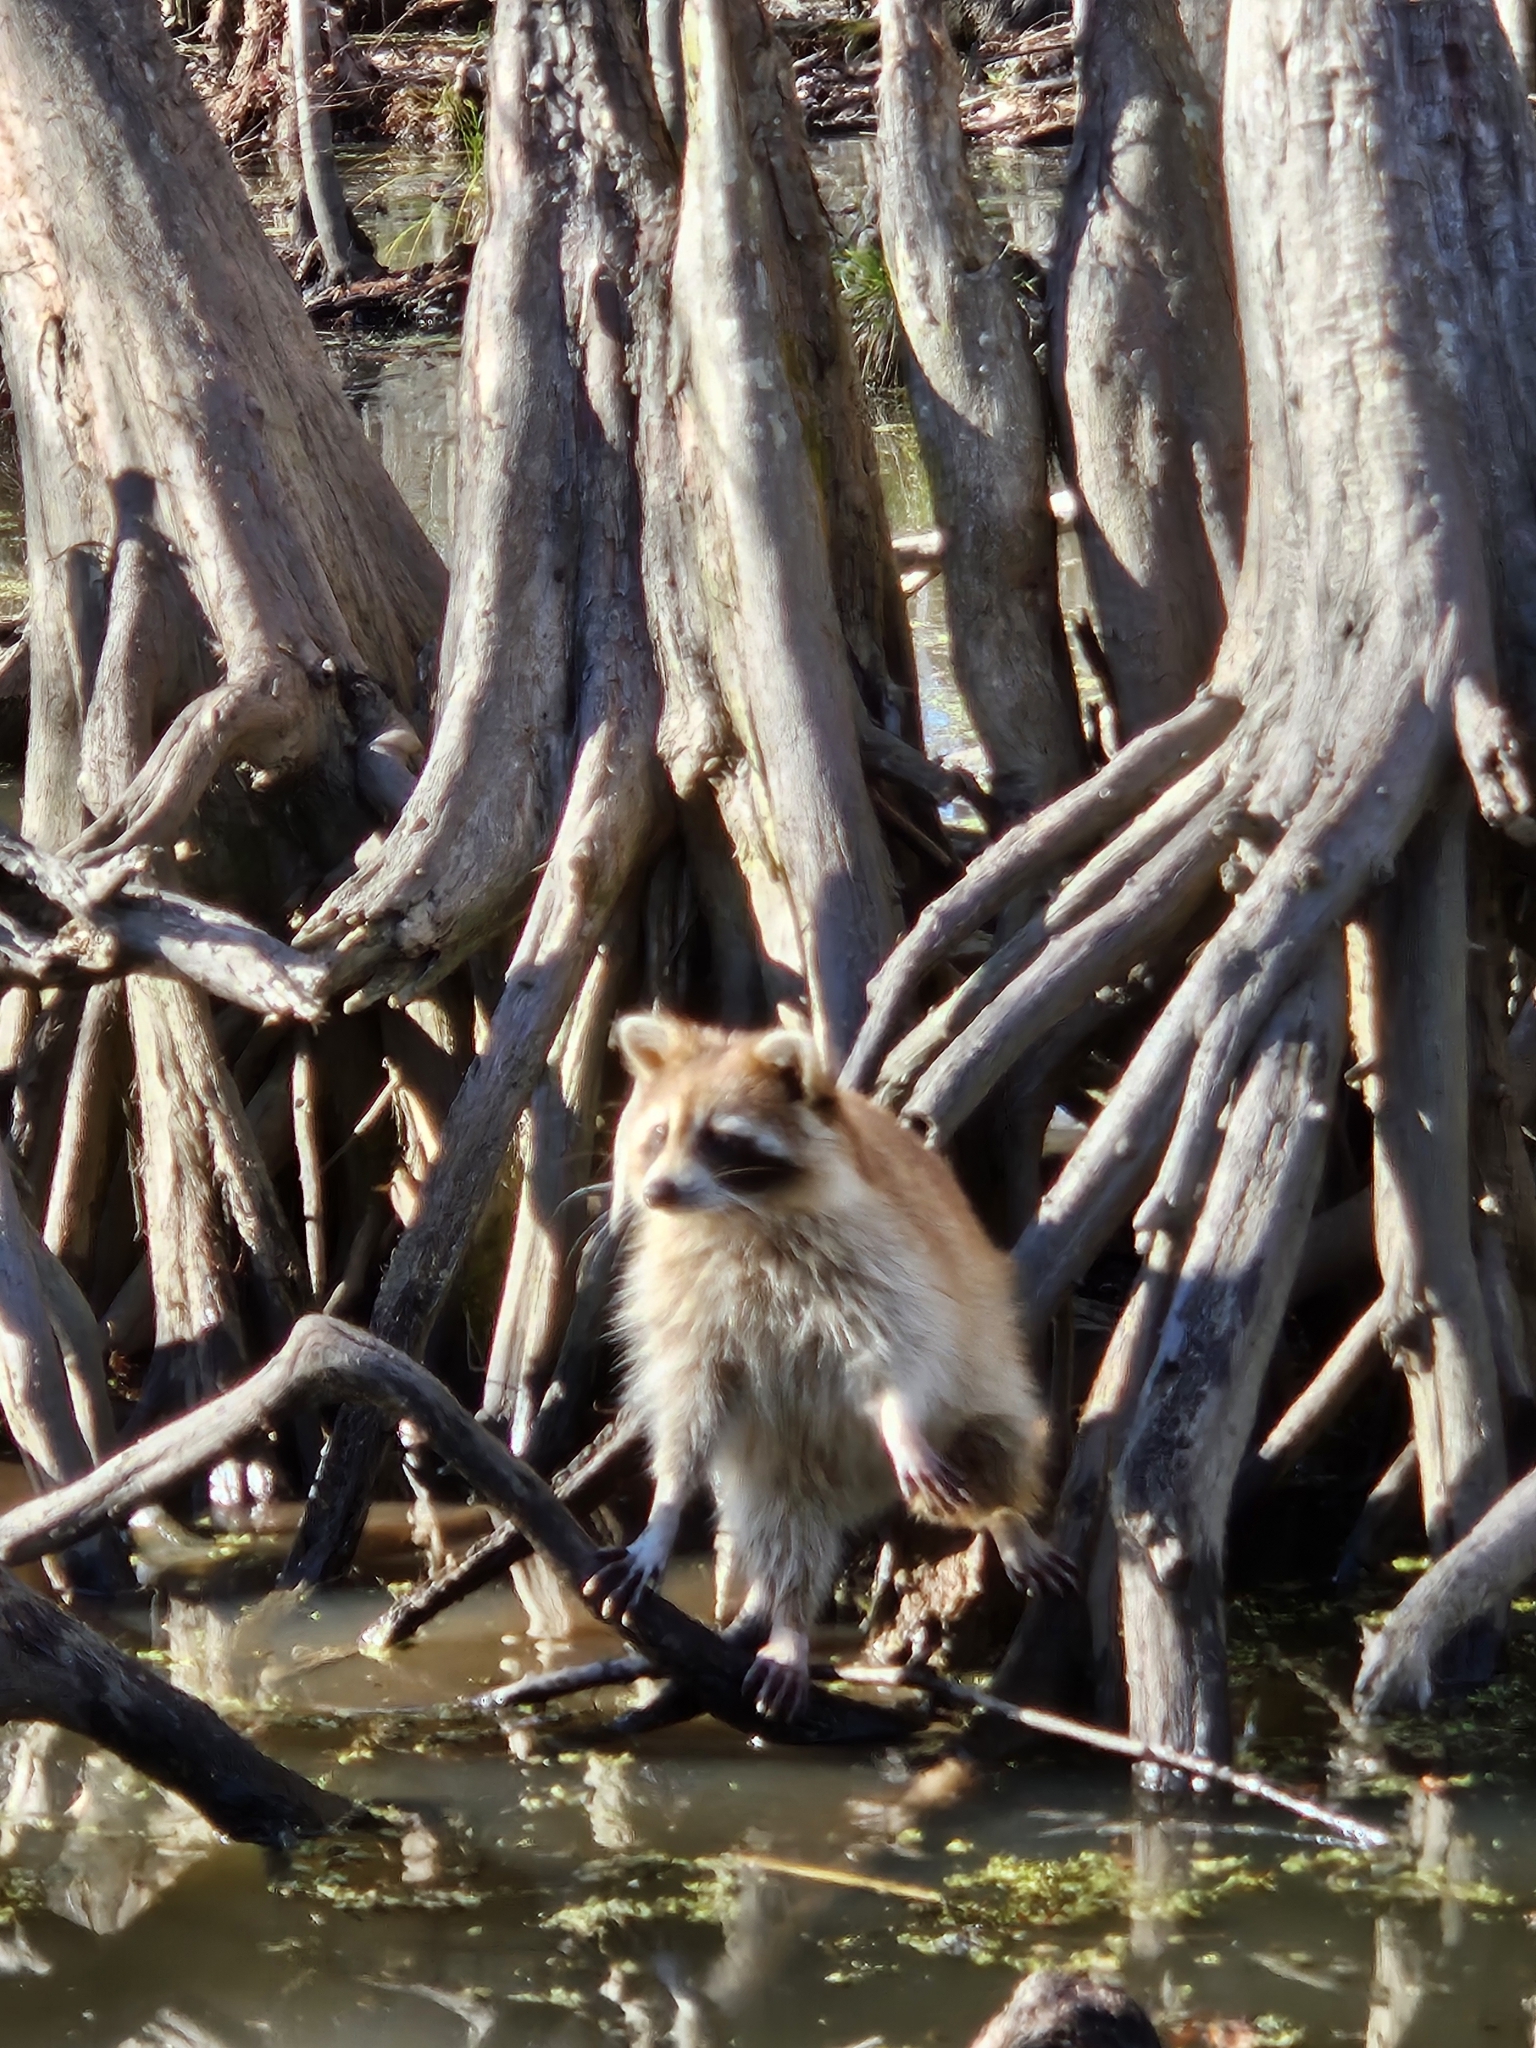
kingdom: Animalia
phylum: Chordata
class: Mammalia
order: Carnivora
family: Procyonidae
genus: Procyon
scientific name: Procyon lotor
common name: Raccoon
